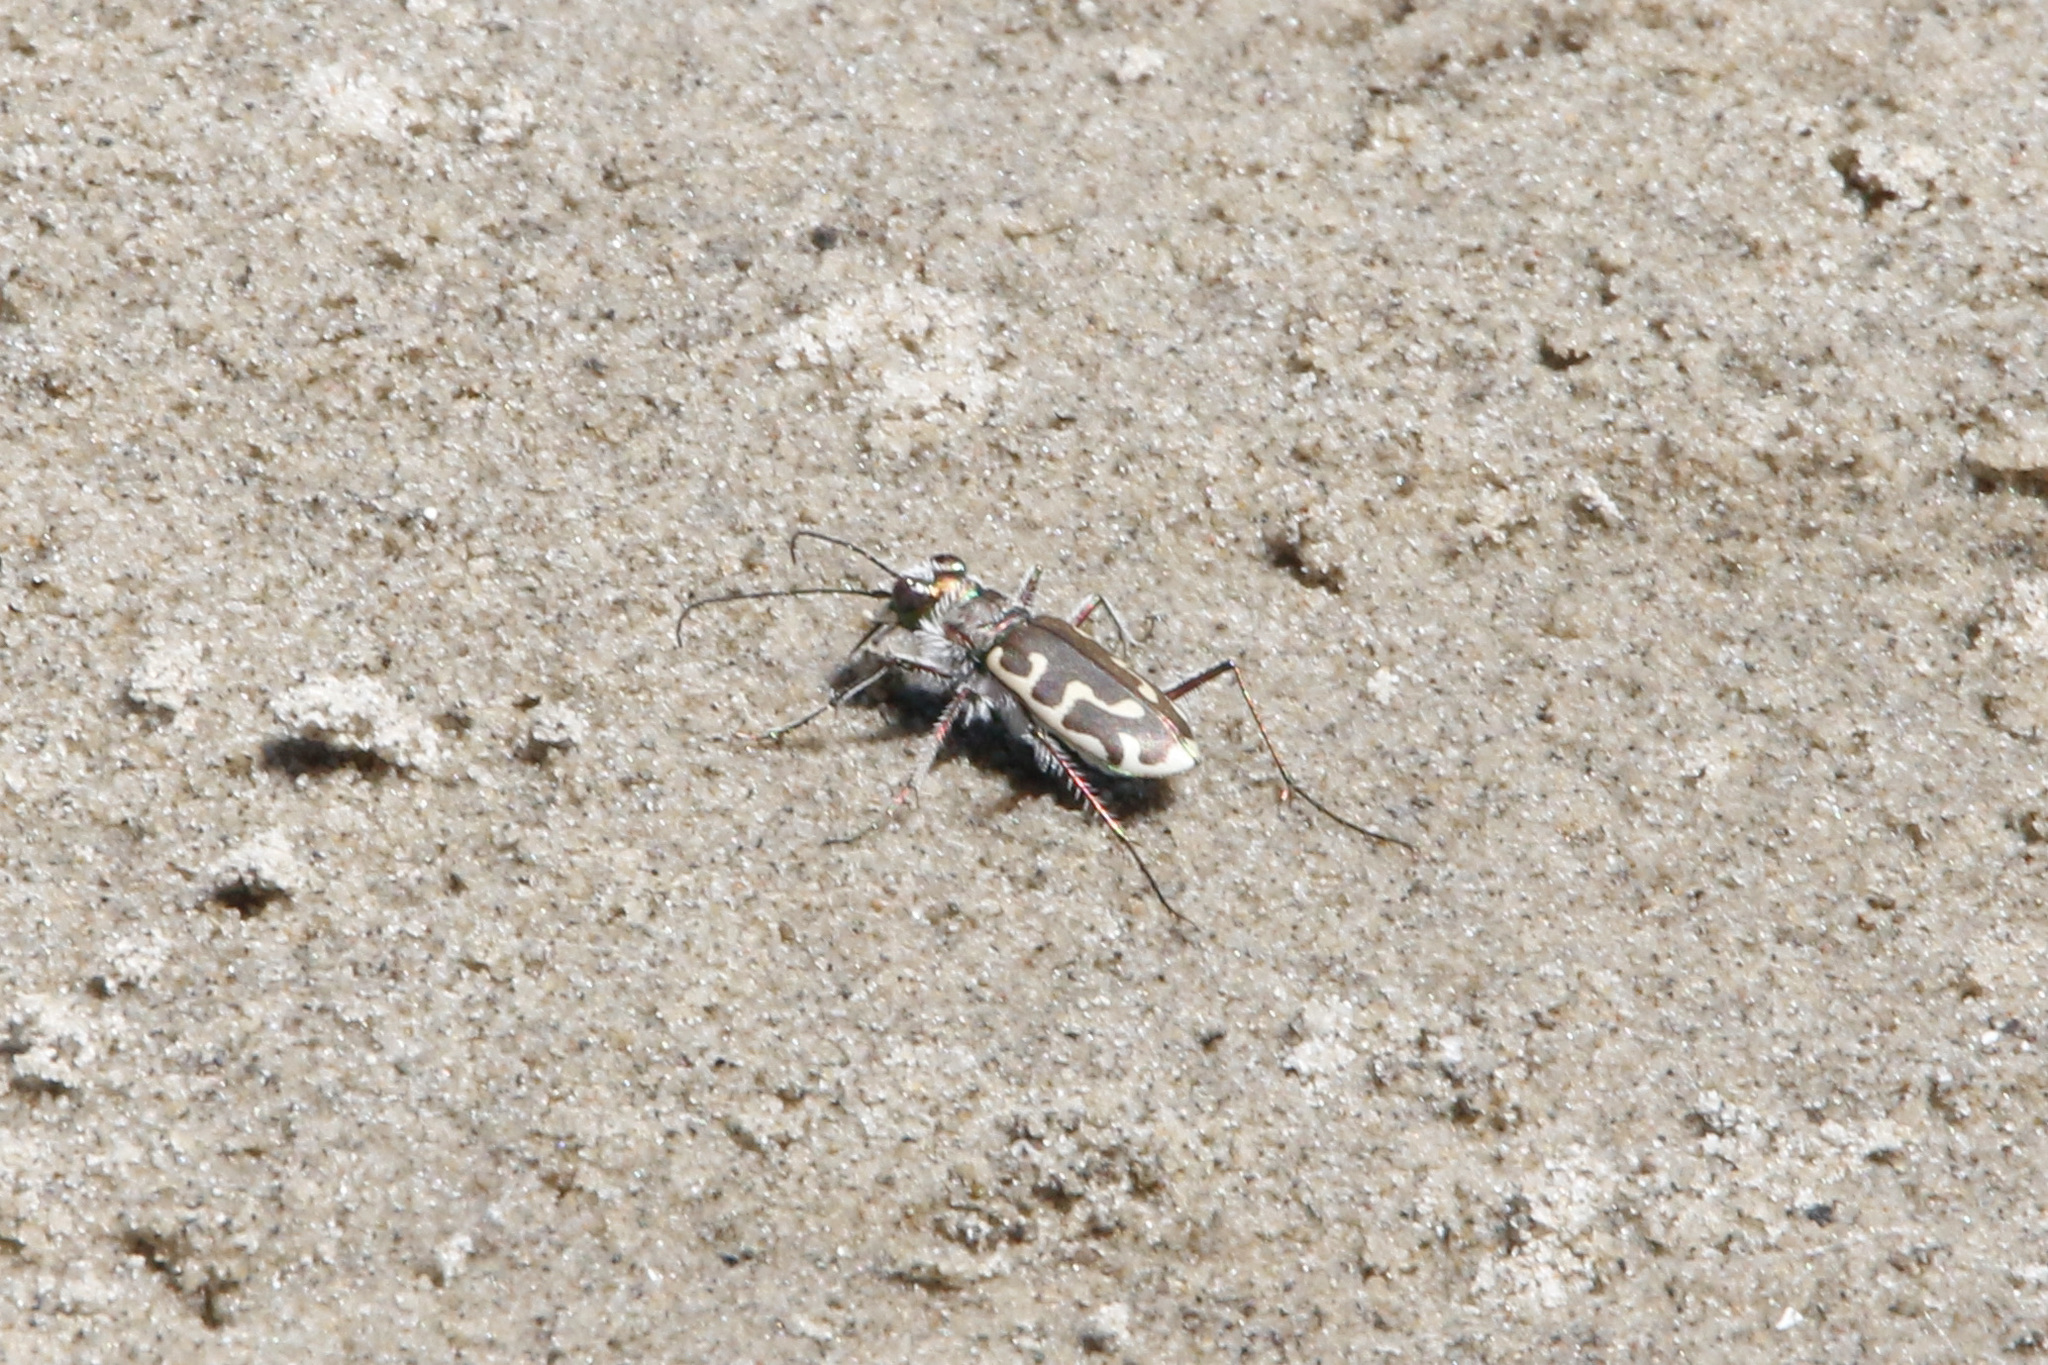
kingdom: Animalia
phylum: Arthropoda
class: Insecta
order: Coleoptera
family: Carabidae
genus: Cicindela
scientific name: Cicindela hirticollis
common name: Hairy-necked tiger beetle
